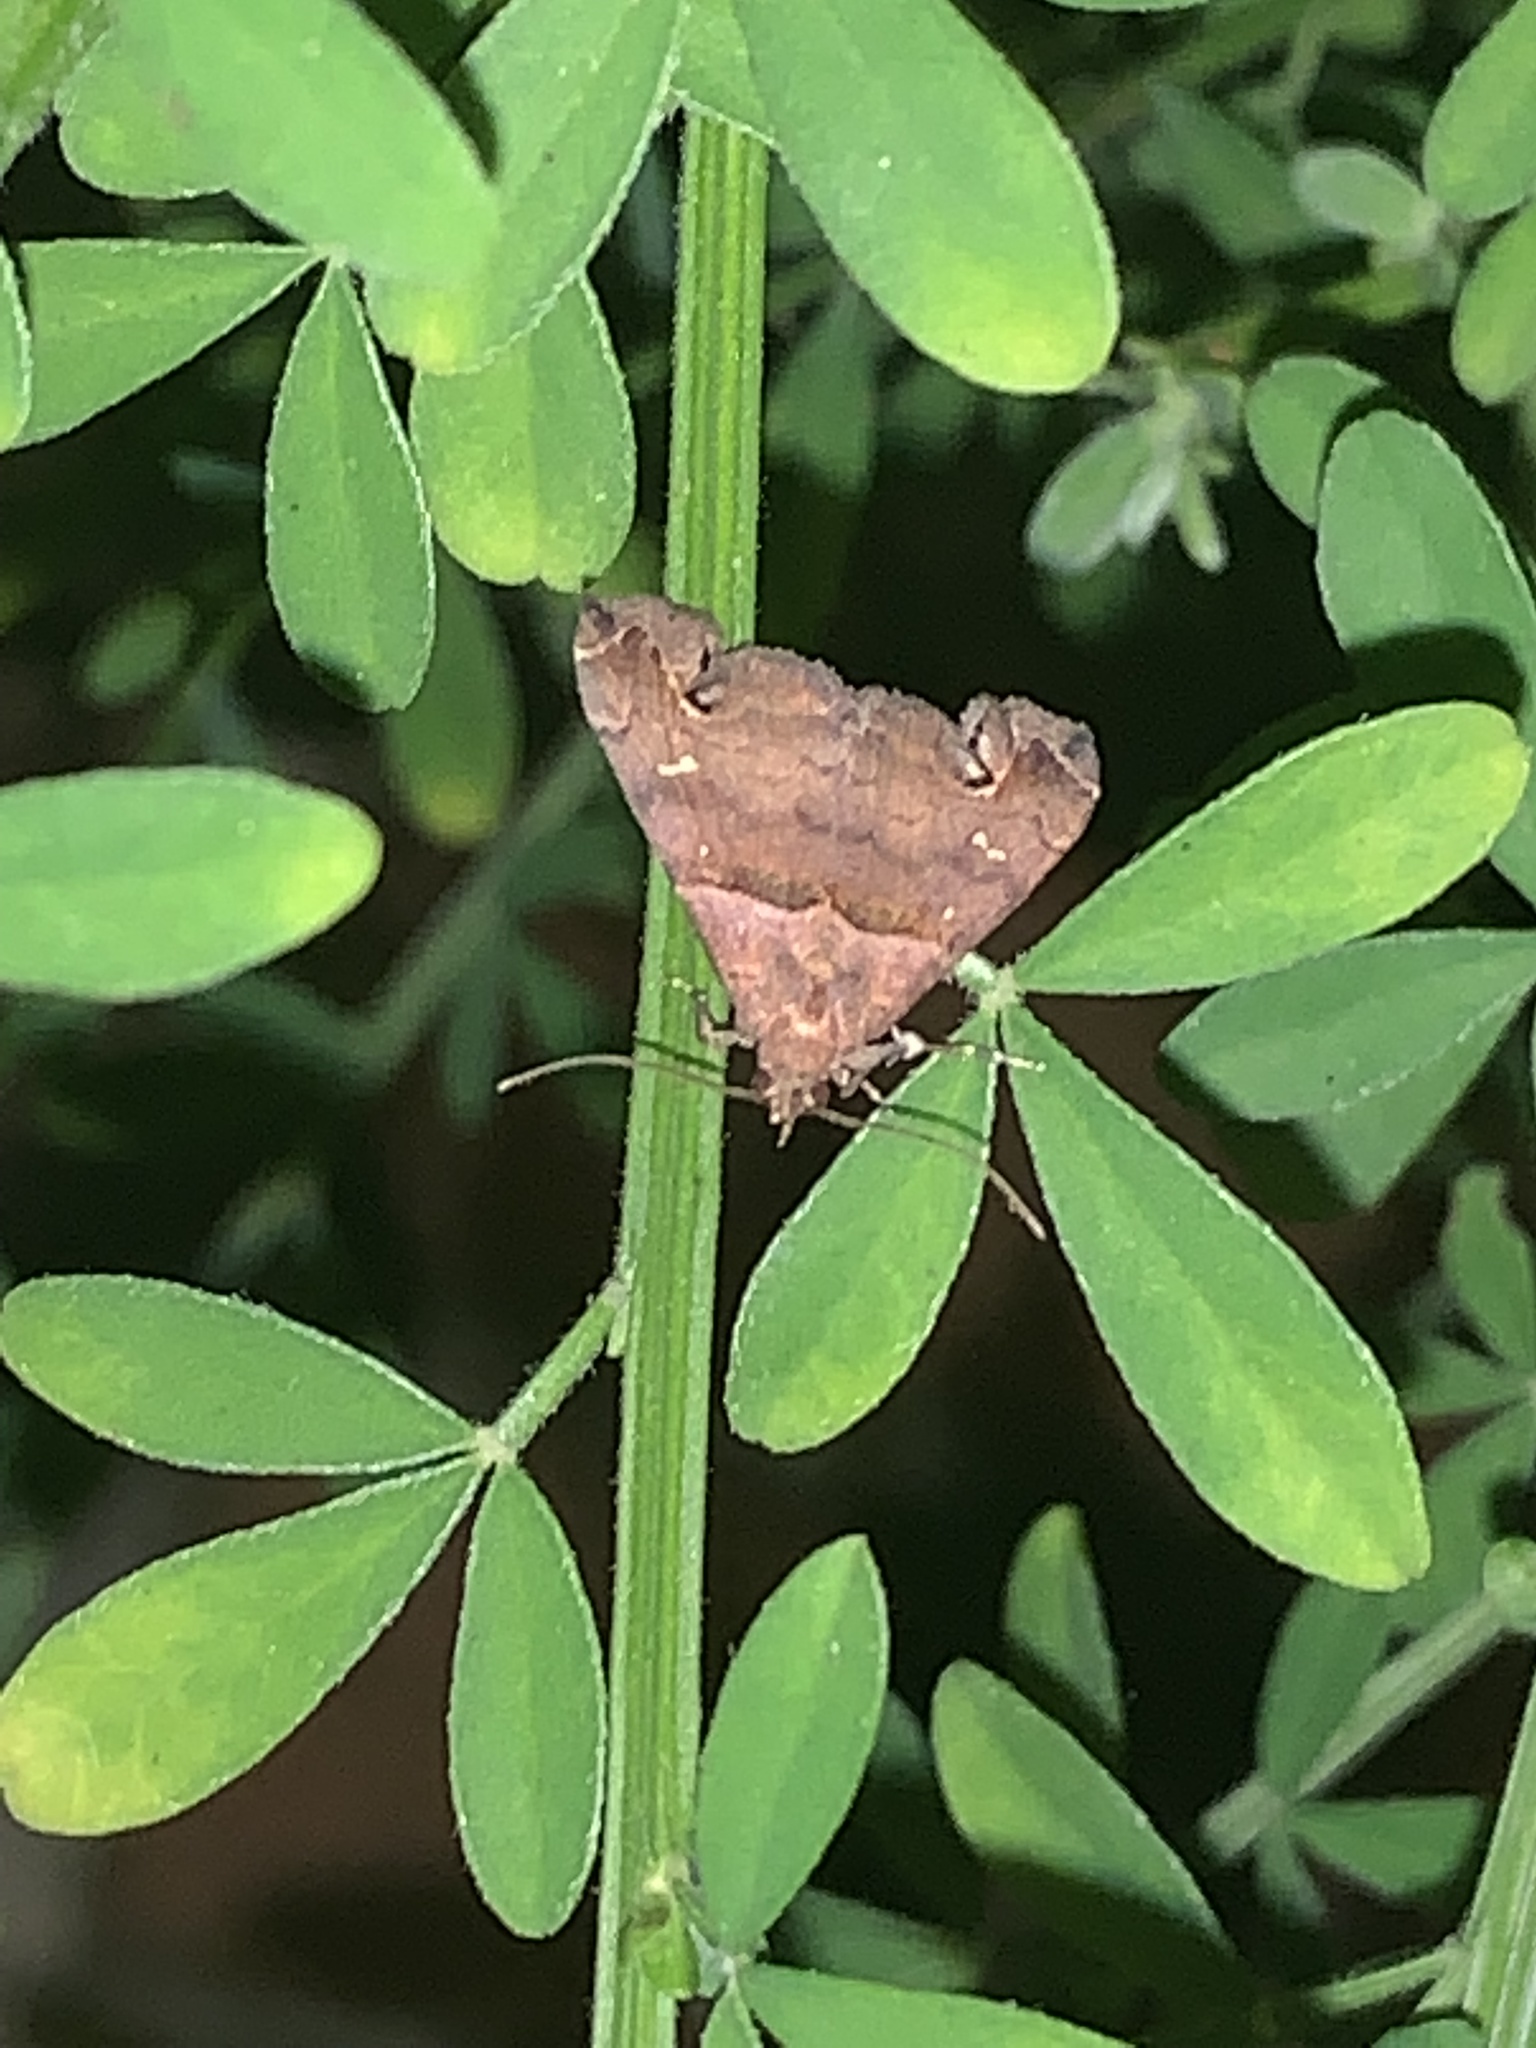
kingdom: Animalia
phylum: Arthropoda
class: Insecta
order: Lepidoptera
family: Erebidae
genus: Lascoria
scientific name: Lascoria ambigualis
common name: Ambiguous moth
